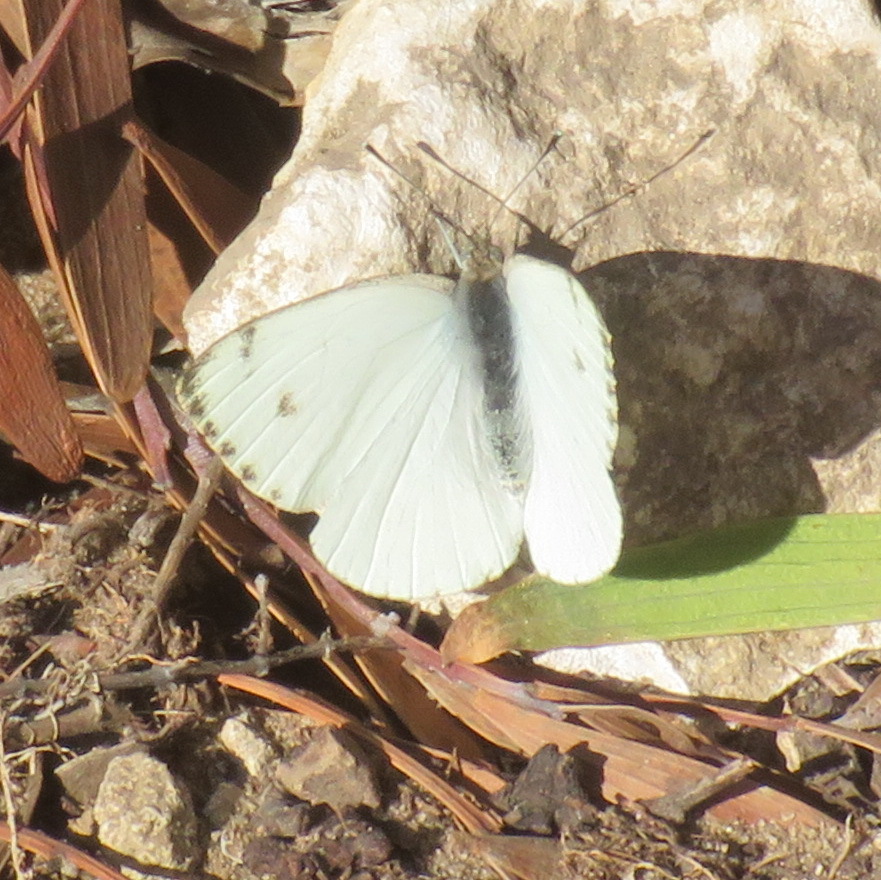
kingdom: Animalia
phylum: Arthropoda
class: Insecta
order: Lepidoptera
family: Pieridae
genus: Dixeia
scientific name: Dixeia charina
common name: African small white
